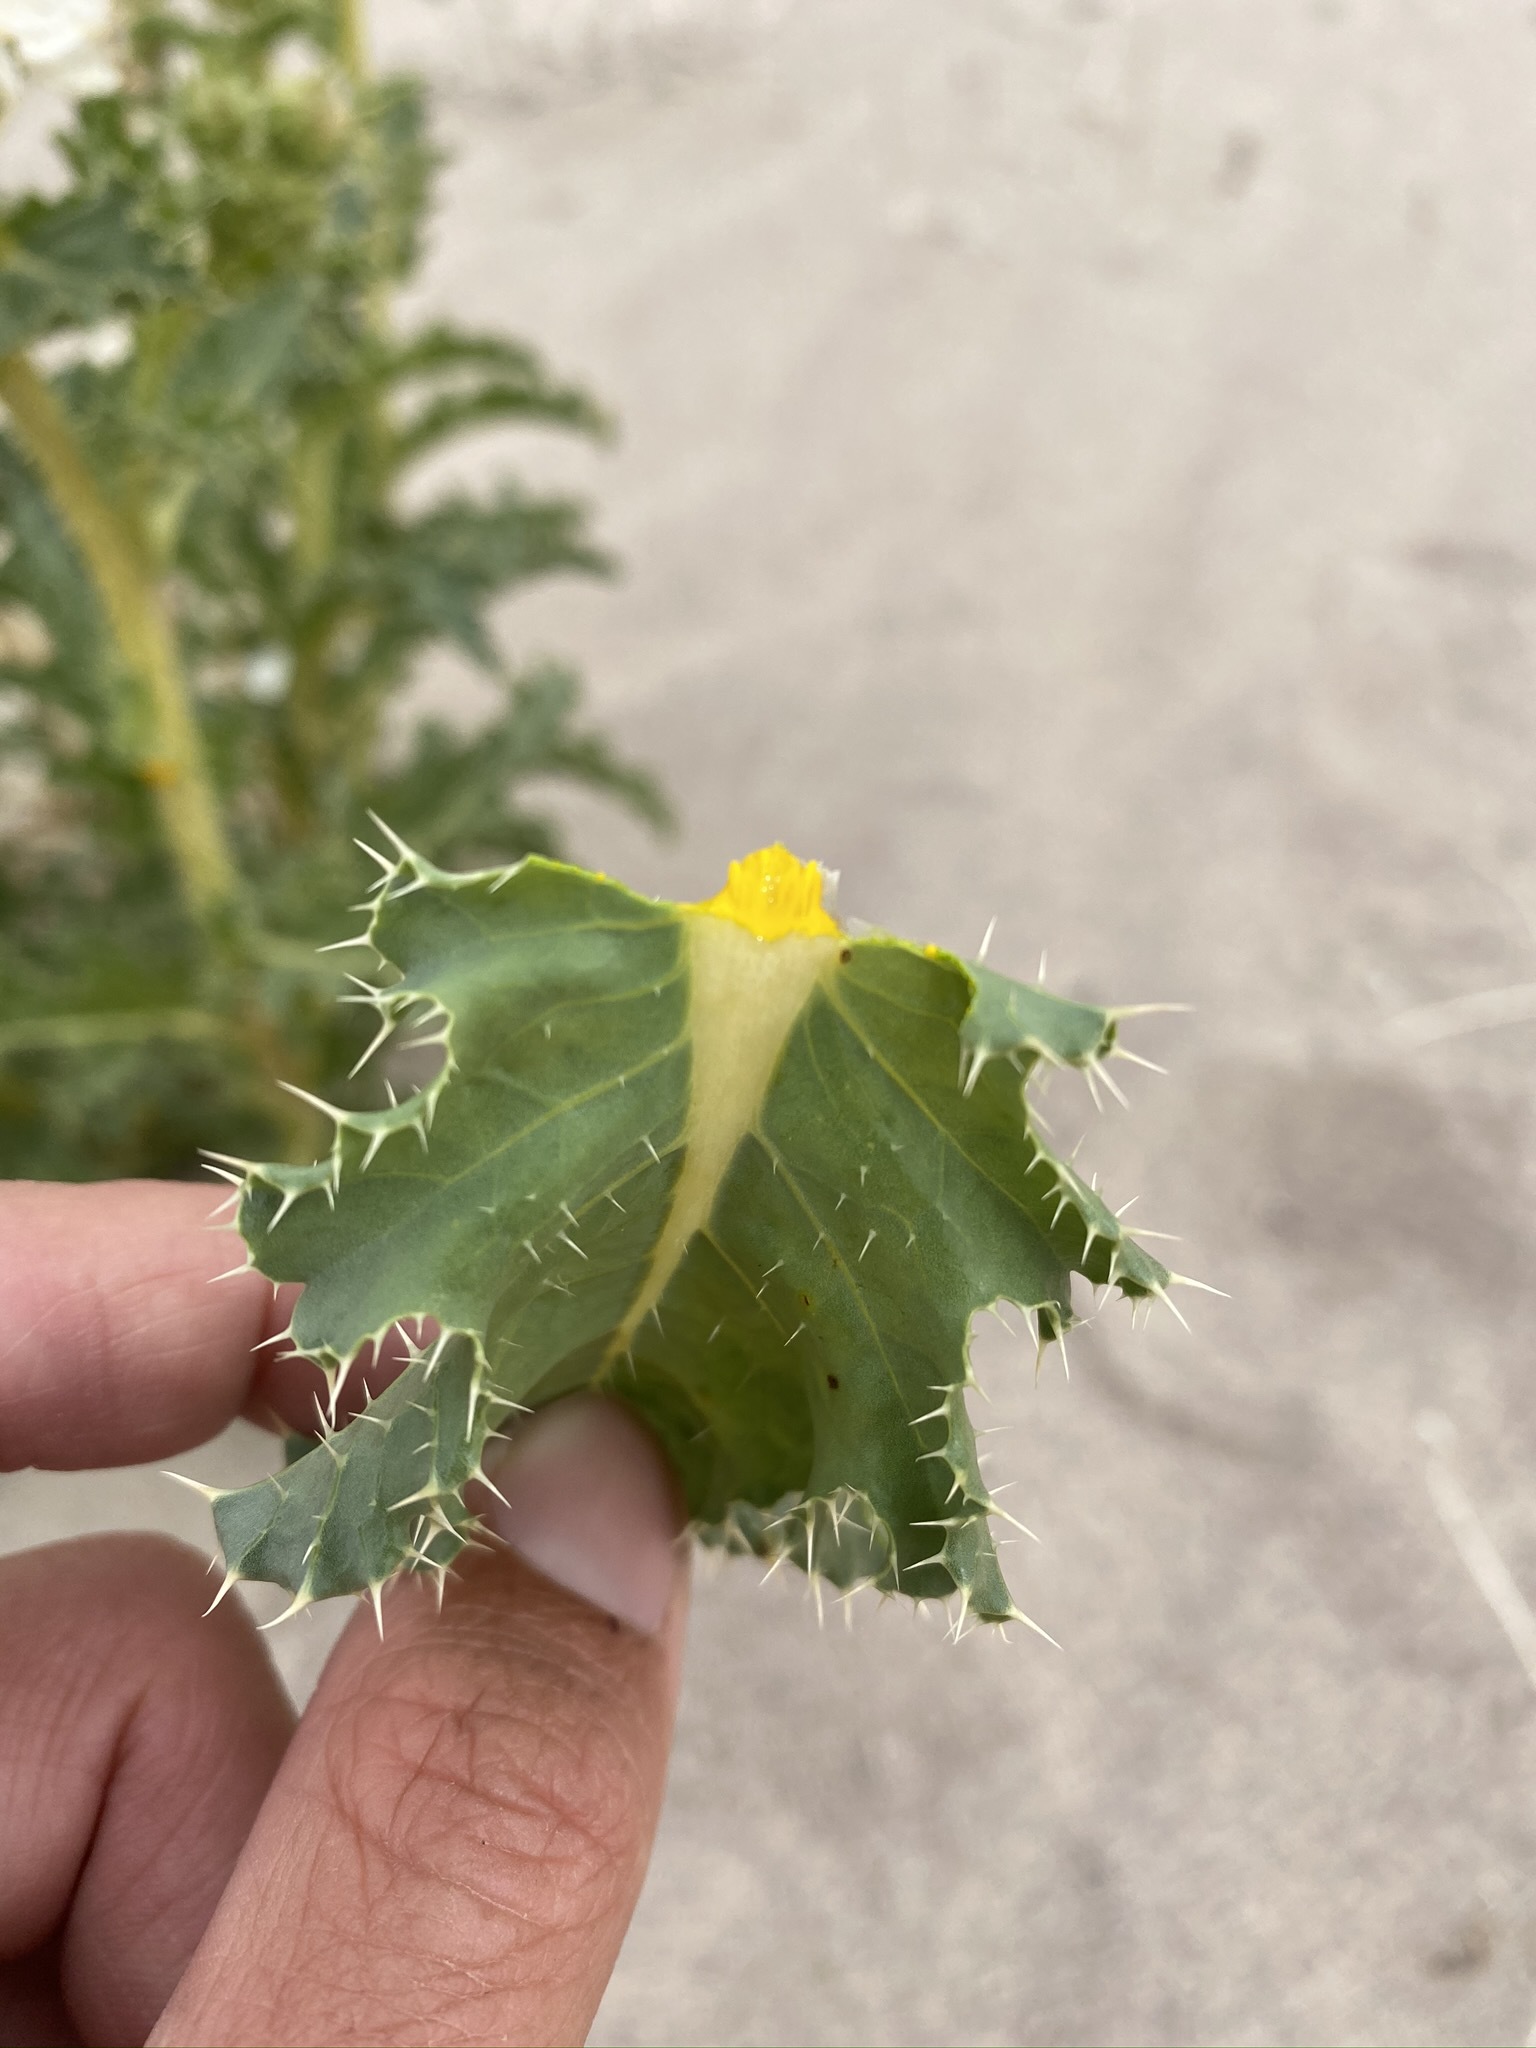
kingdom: Plantae
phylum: Tracheophyta
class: Magnoliopsida
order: Ranunculales
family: Papaveraceae
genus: Argemone
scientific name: Argemone corymbosa
